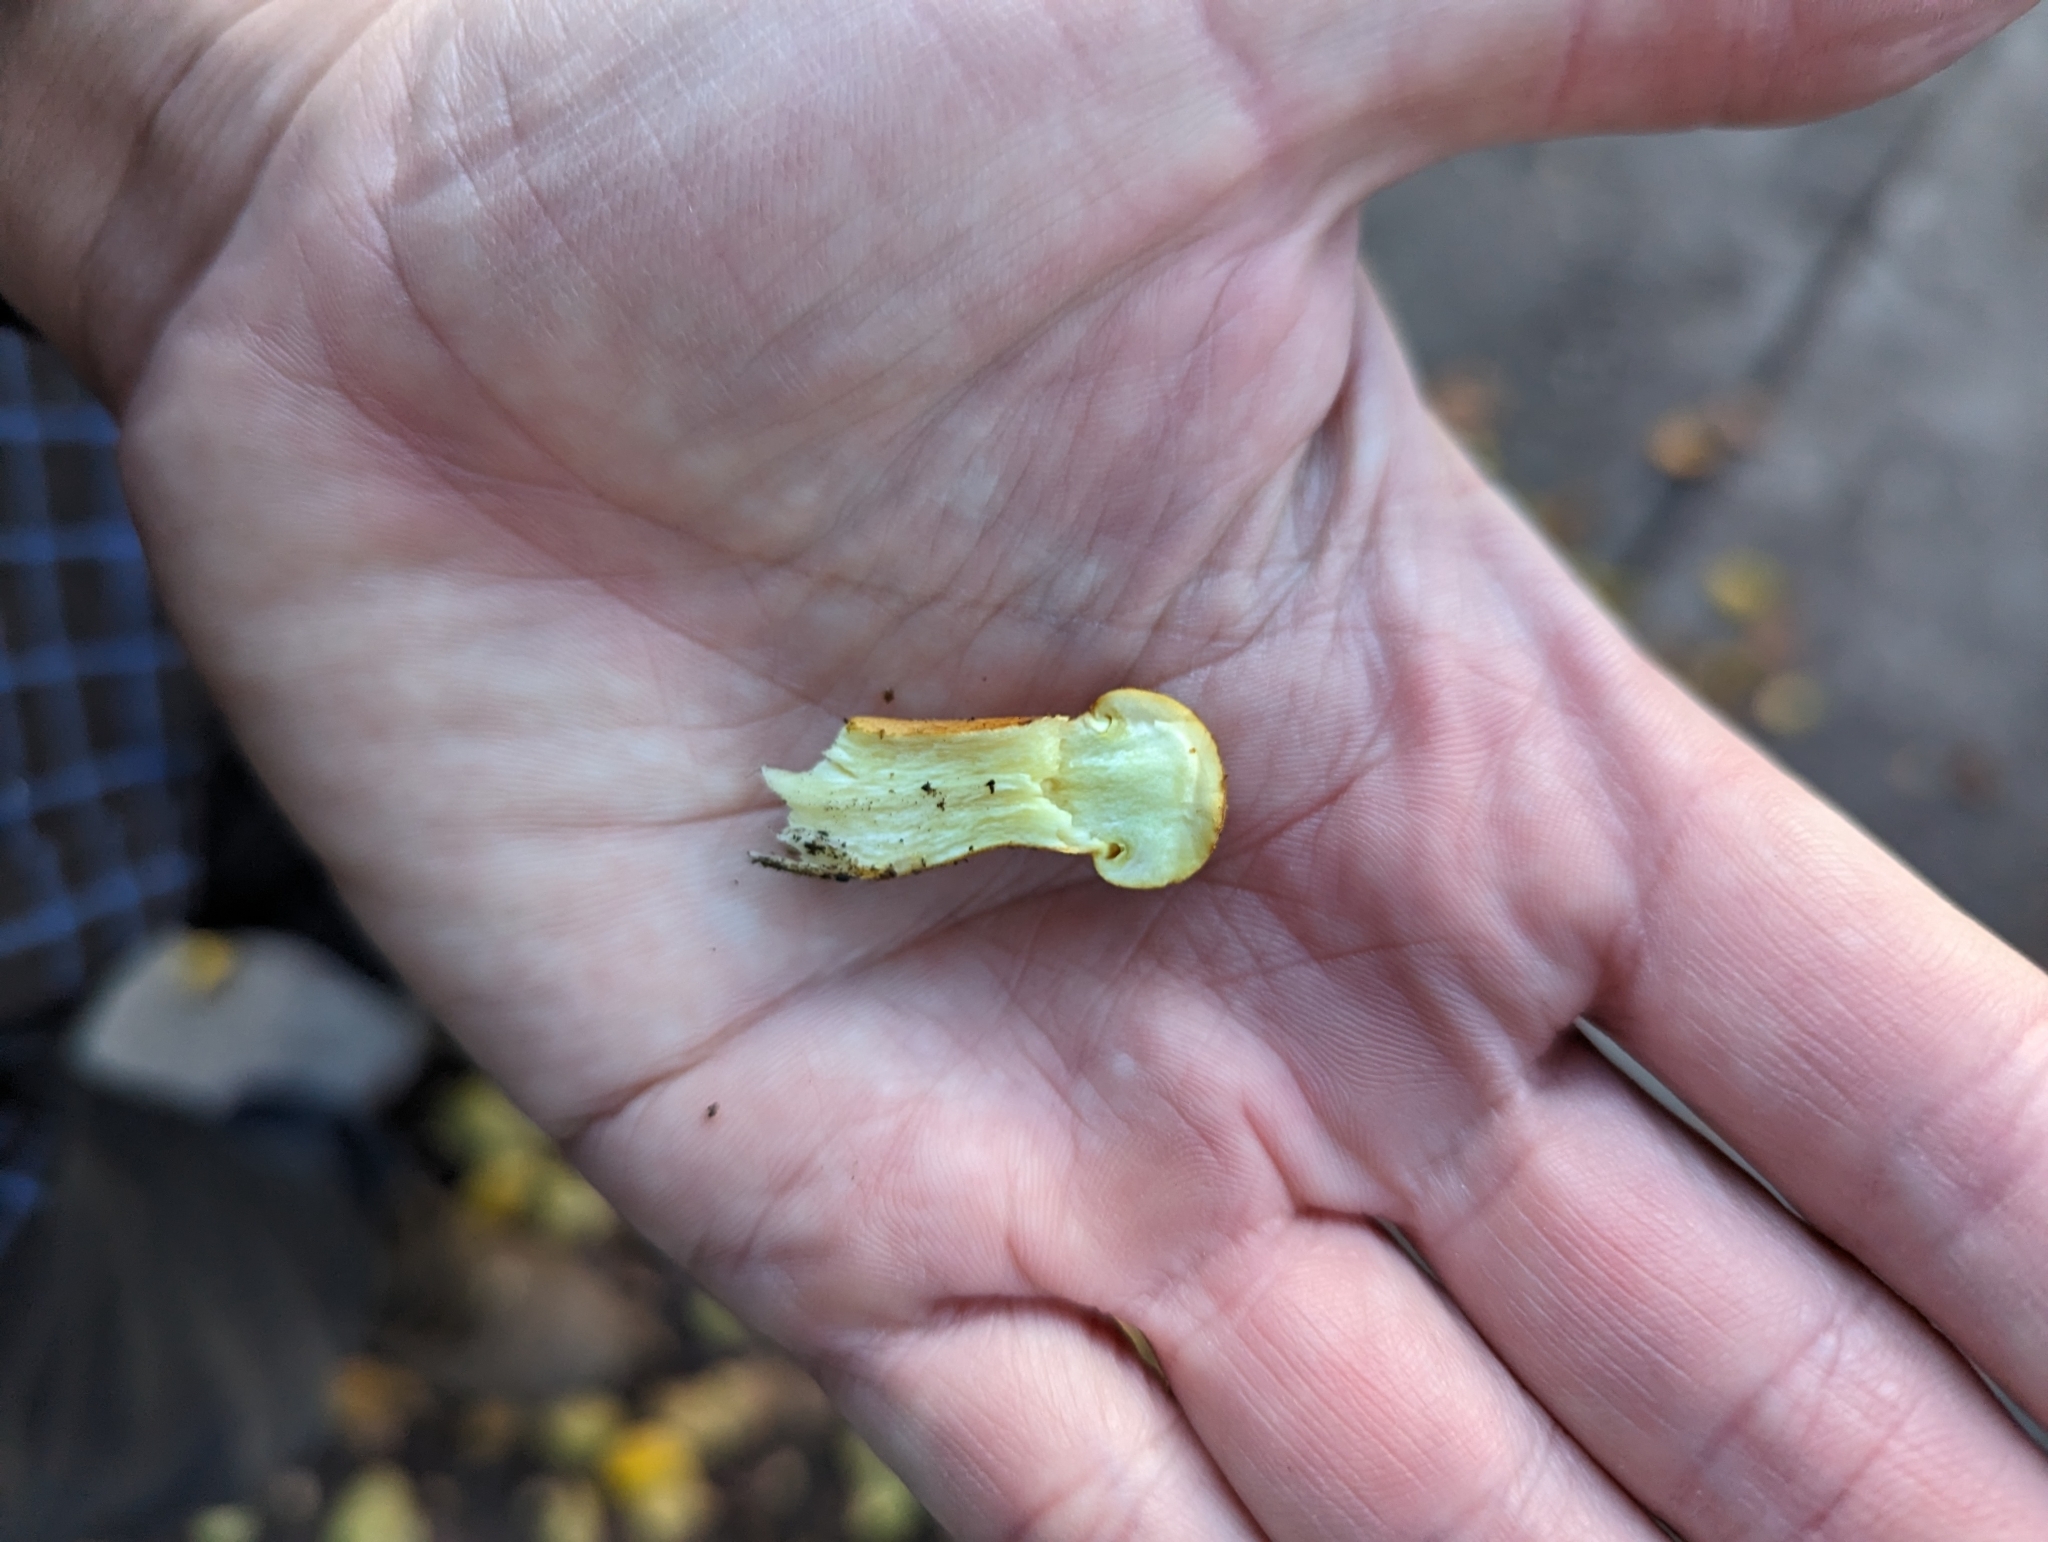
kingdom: Fungi
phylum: Basidiomycota
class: Agaricomycetes
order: Agaricales
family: Hymenogastraceae
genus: Gymnopilus
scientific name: Gymnopilus ventricosus
